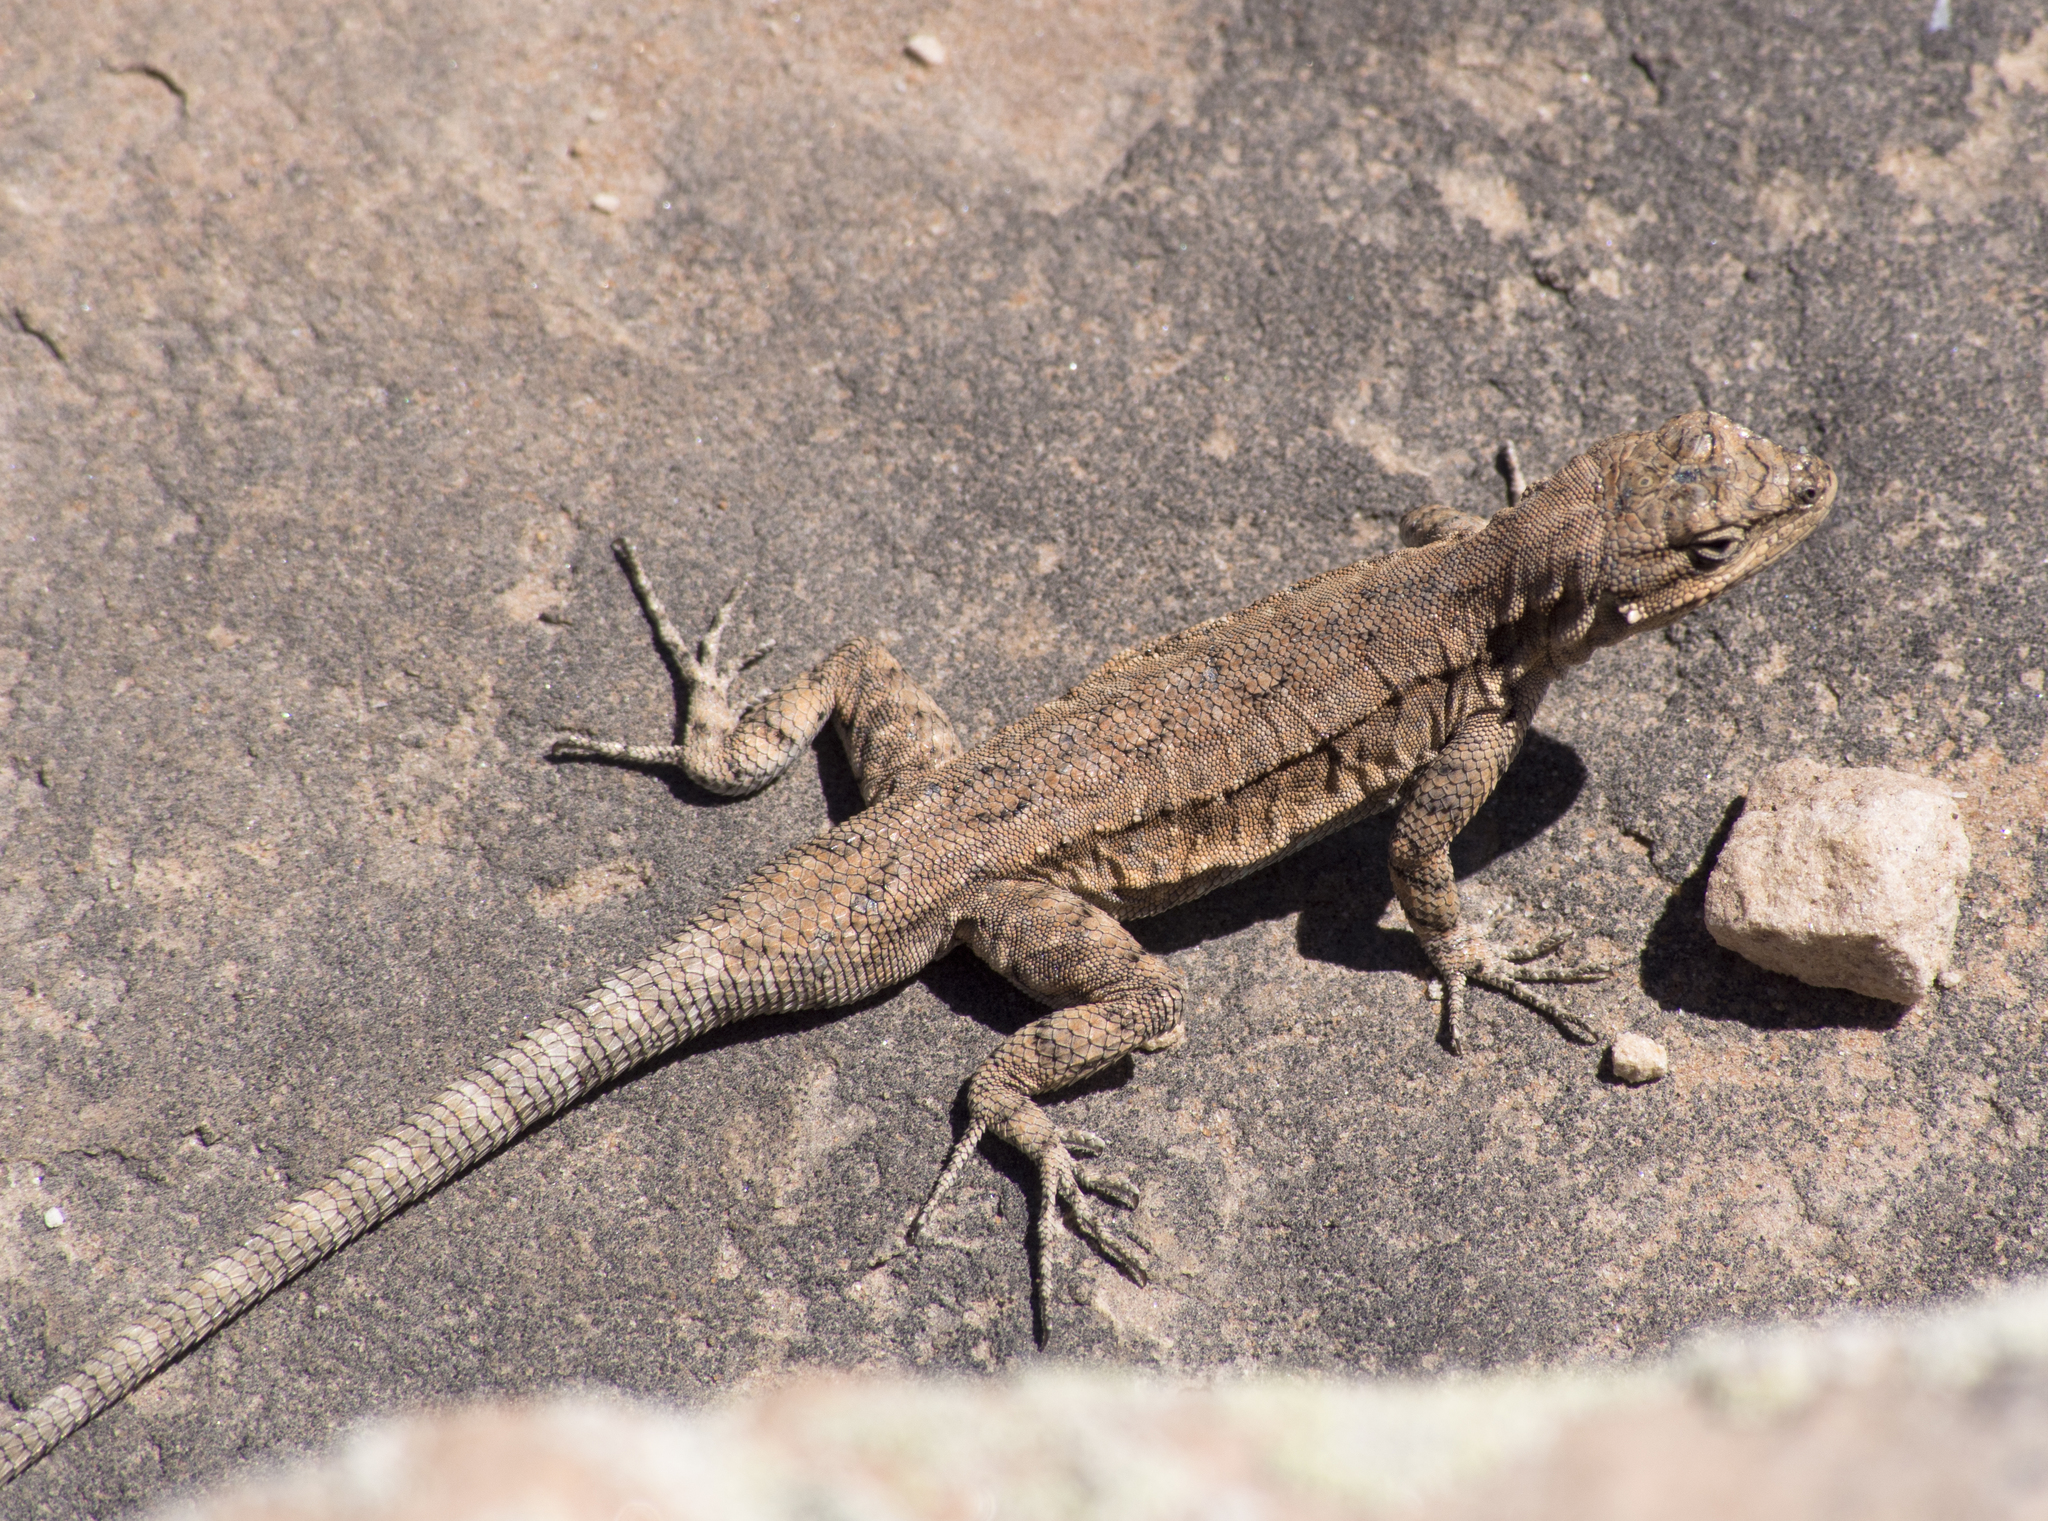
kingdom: Animalia
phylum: Chordata
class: Squamata
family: Phrynosomatidae
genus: Urosaurus
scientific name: Urosaurus ornatus
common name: Ornate tree lizard
